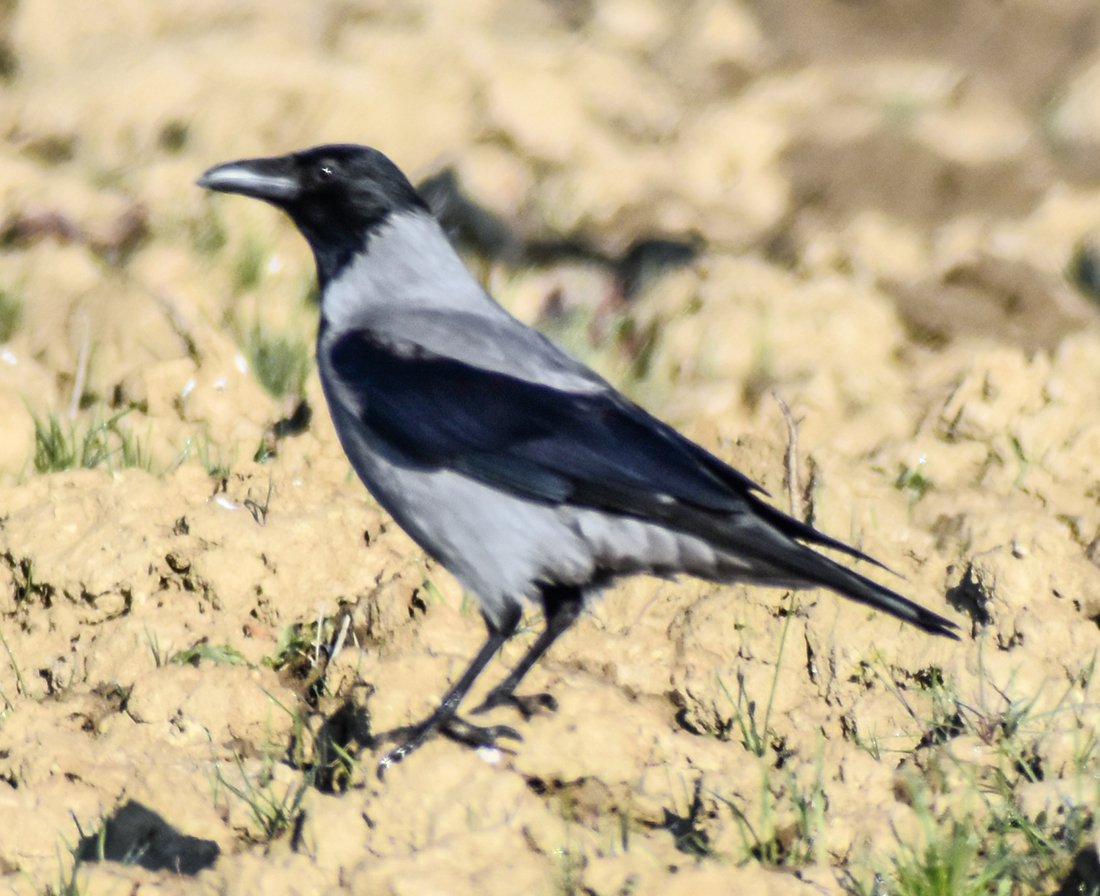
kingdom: Animalia
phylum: Chordata
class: Aves
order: Passeriformes
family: Corvidae
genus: Corvus
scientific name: Corvus cornix
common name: Hooded crow
